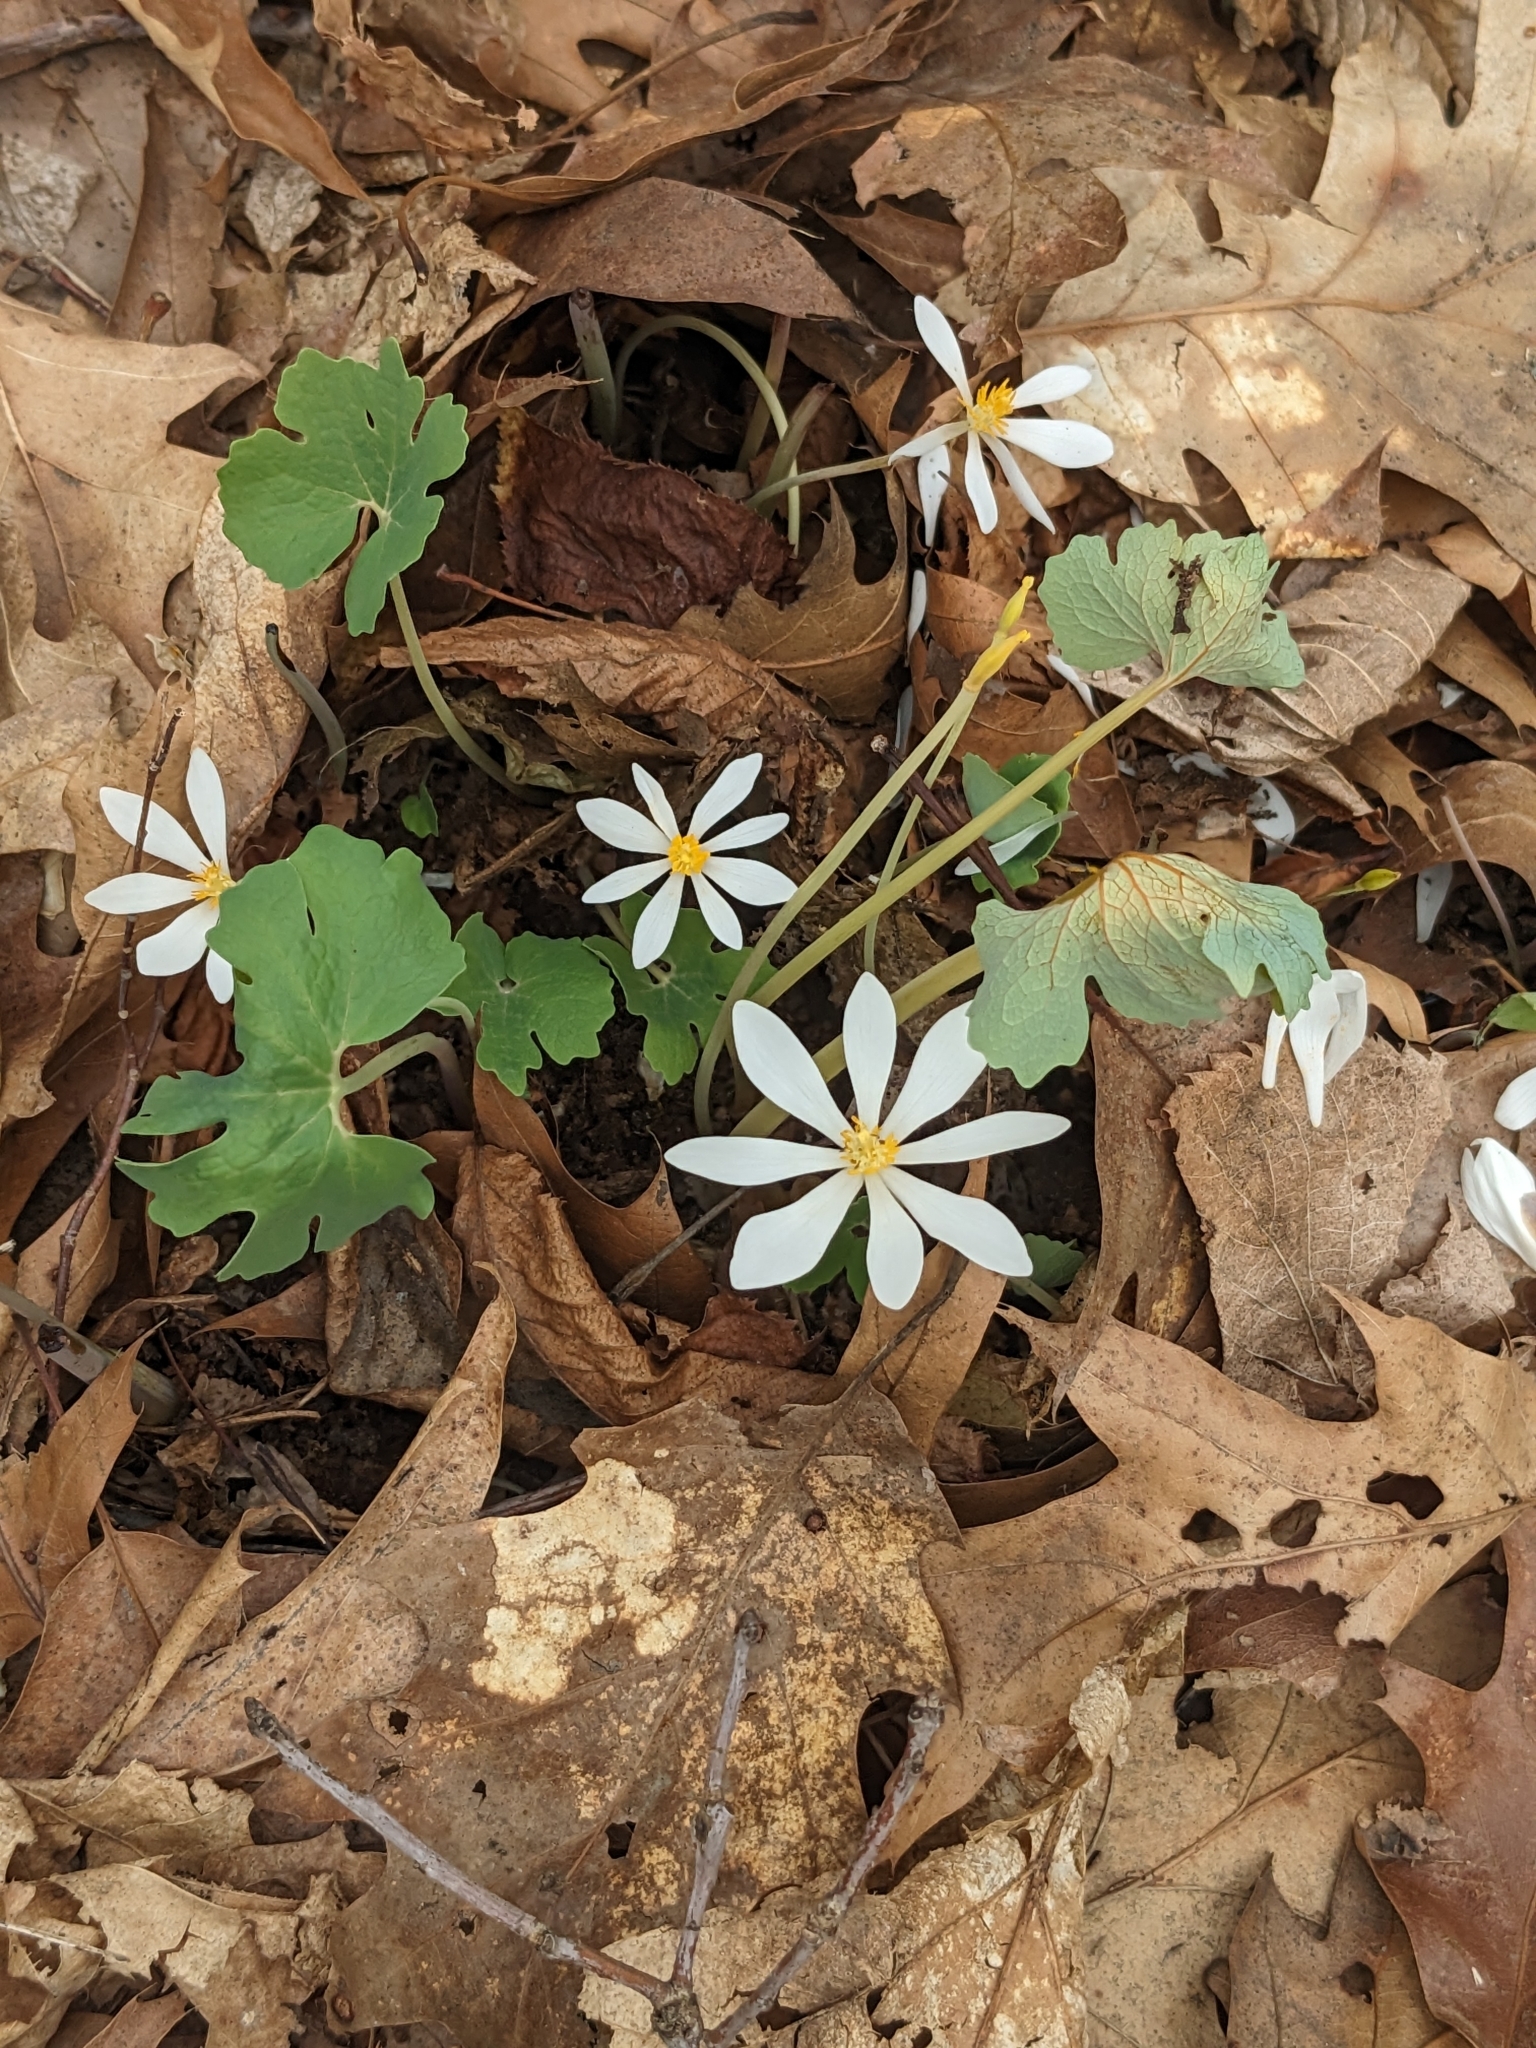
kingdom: Plantae
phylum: Tracheophyta
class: Magnoliopsida
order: Ranunculales
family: Papaveraceae
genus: Sanguinaria
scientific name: Sanguinaria canadensis
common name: Bloodroot
